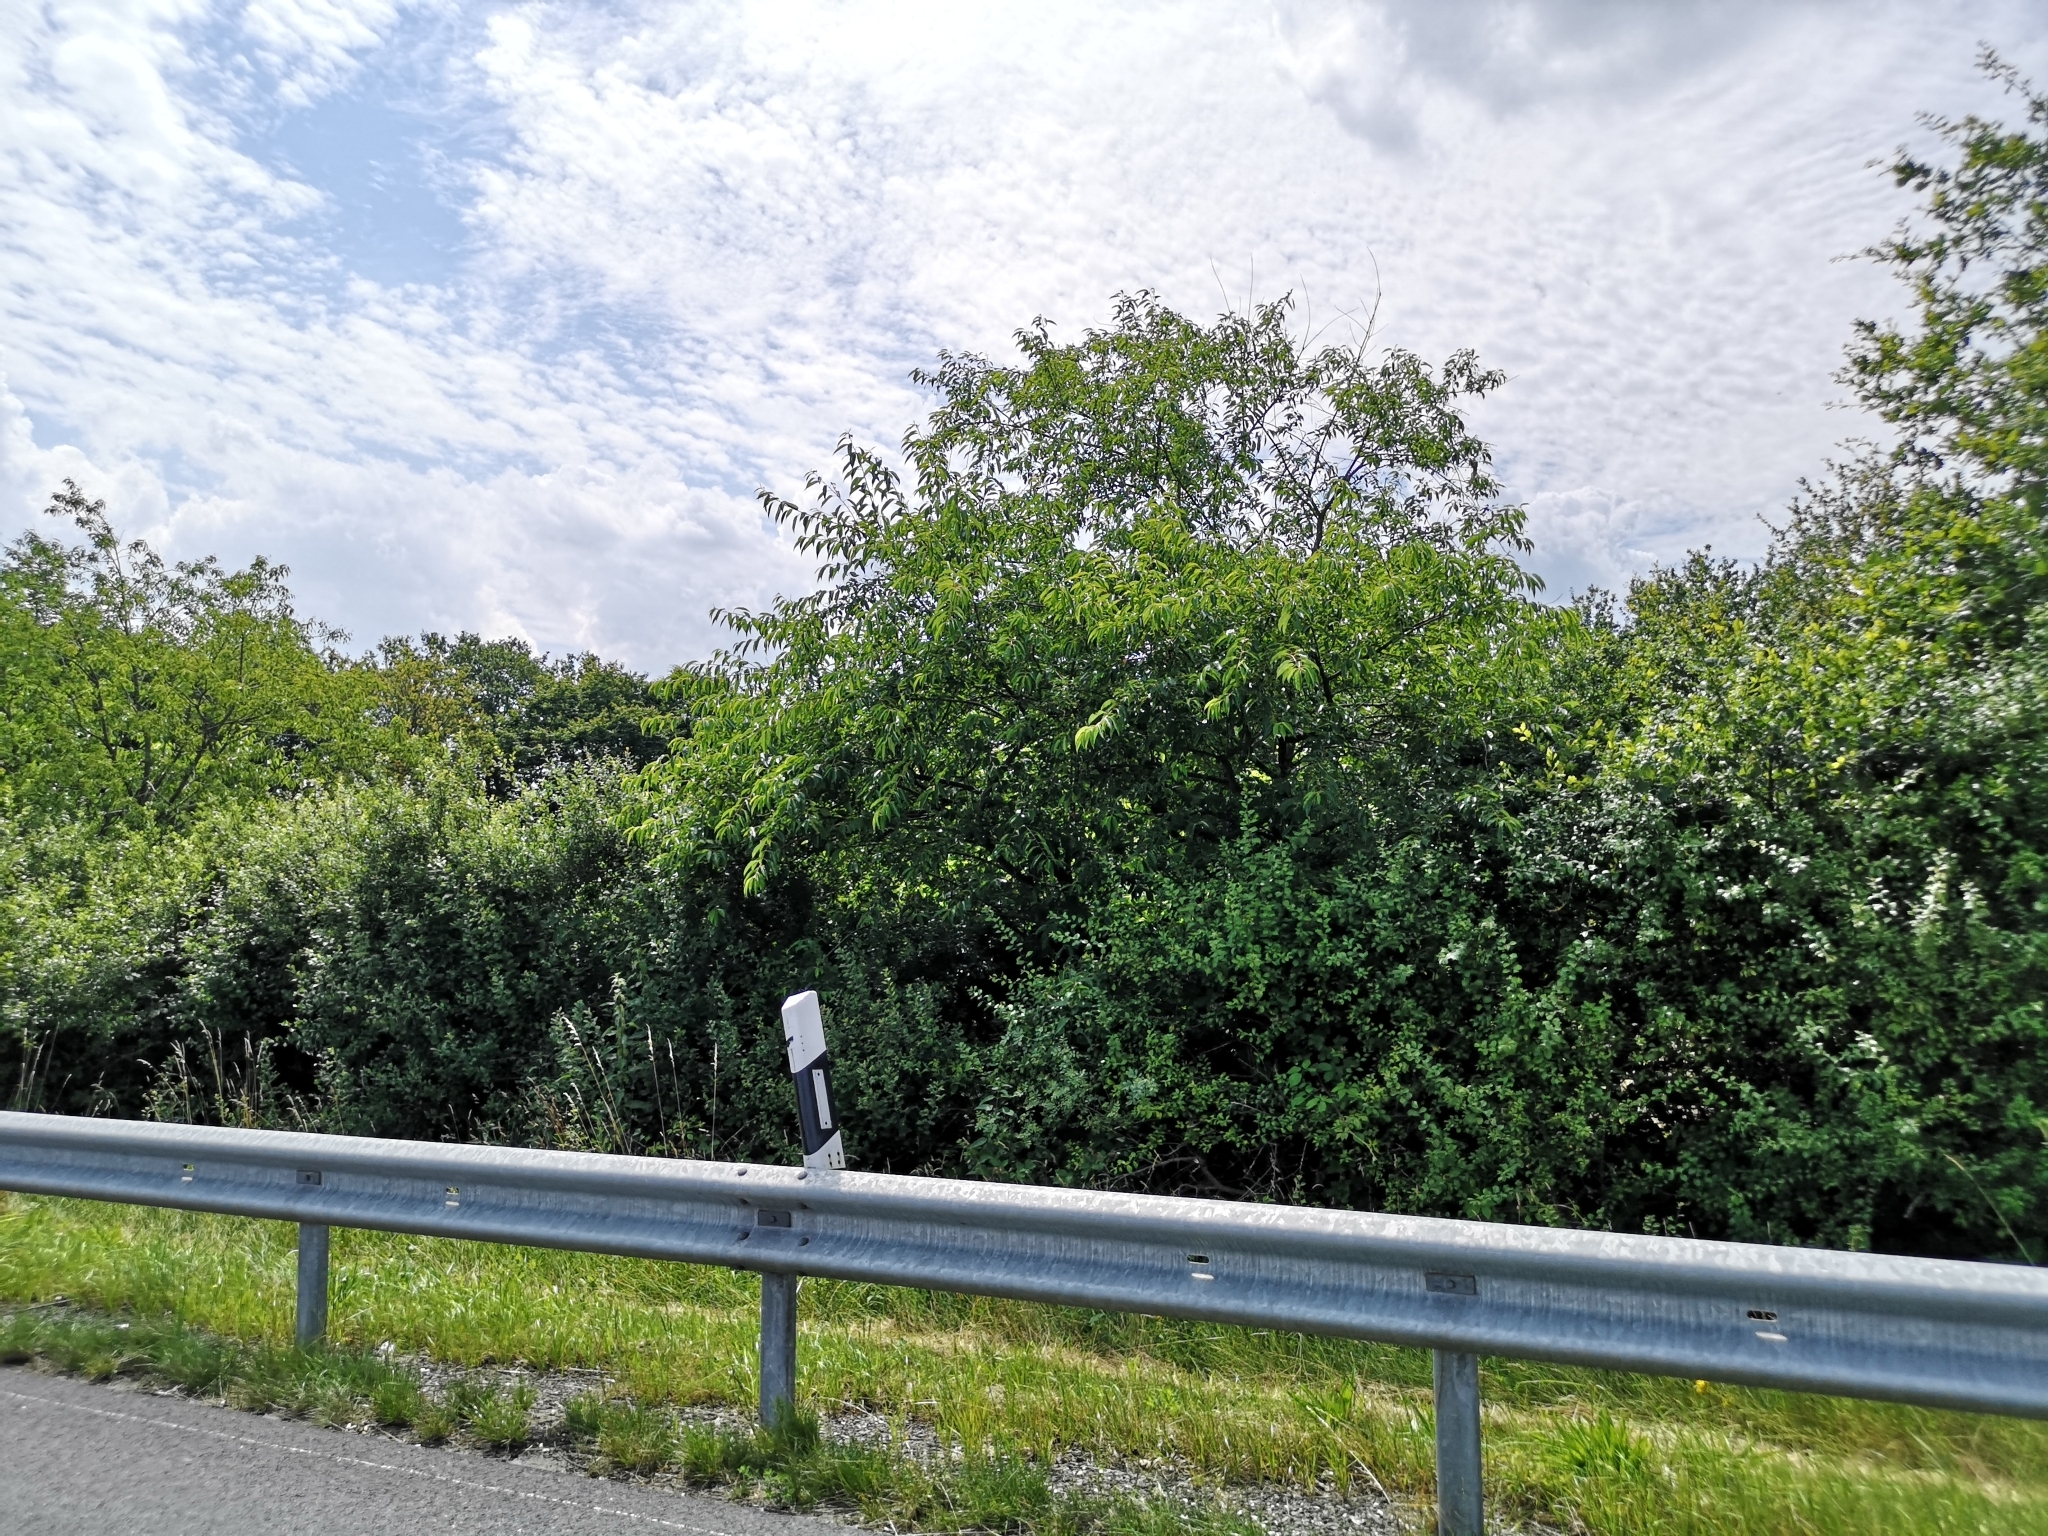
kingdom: Plantae
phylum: Tracheophyta
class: Magnoliopsida
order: Rosales
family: Rosaceae
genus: Prunus
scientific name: Prunus serotina
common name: Black cherry
